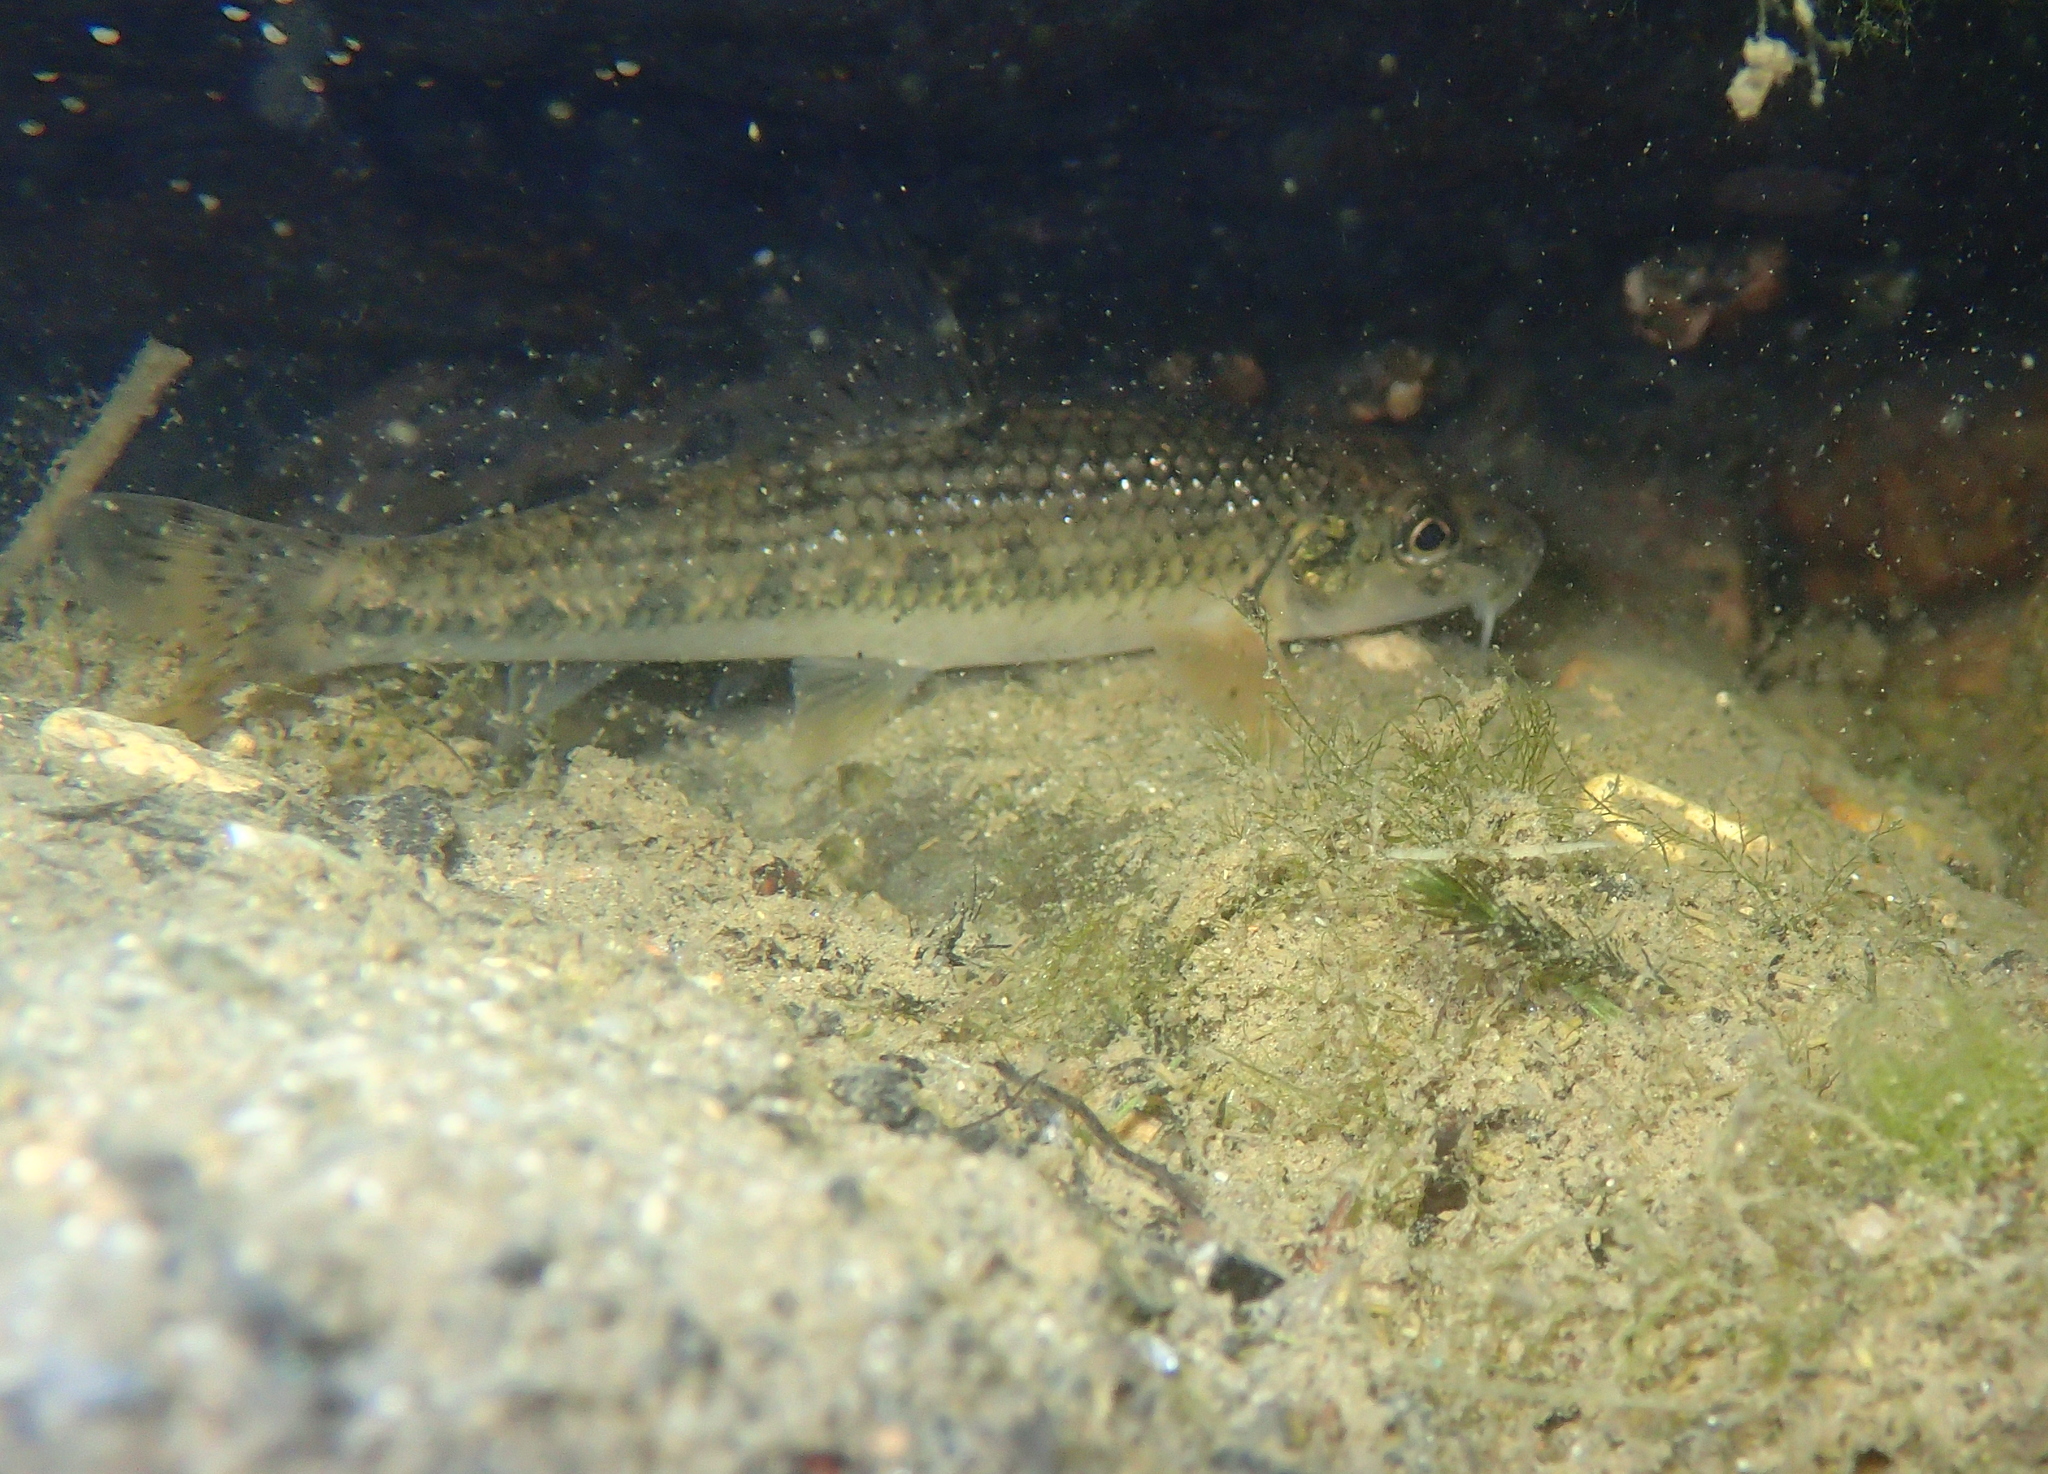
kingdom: Animalia
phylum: Chordata
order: Cypriniformes
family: Cyprinidae
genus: Gobio
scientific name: Gobio occitaniae
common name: Languedoc gudgeon
